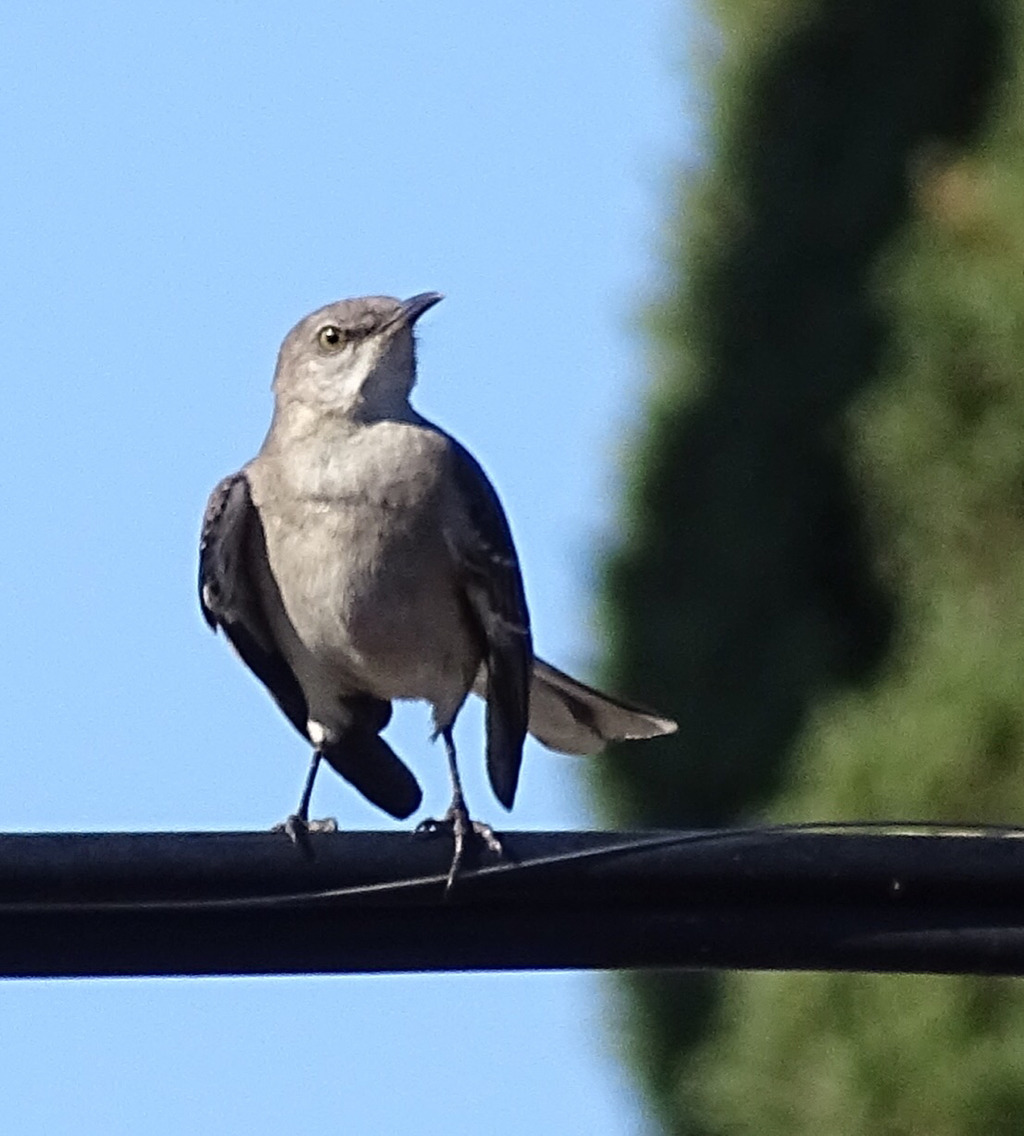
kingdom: Animalia
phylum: Chordata
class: Aves
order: Passeriformes
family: Mimidae
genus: Mimus
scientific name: Mimus polyglottos
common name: Northern mockingbird
